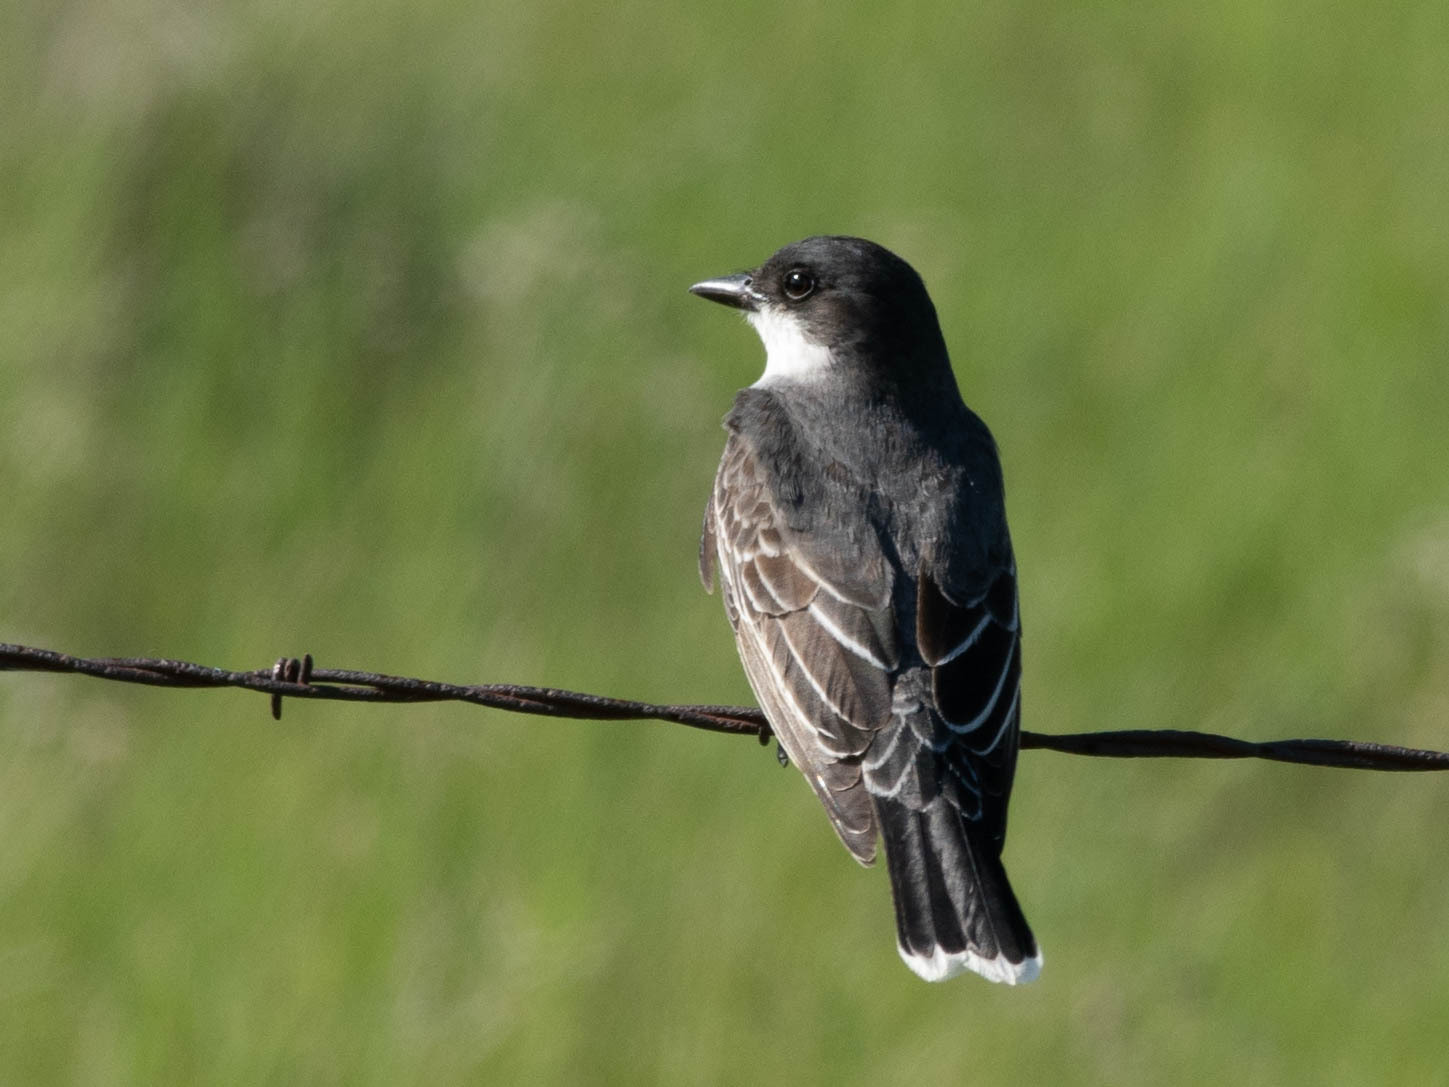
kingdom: Animalia
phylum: Chordata
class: Aves
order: Passeriformes
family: Tyrannidae
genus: Tyrannus
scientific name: Tyrannus tyrannus
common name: Eastern kingbird
